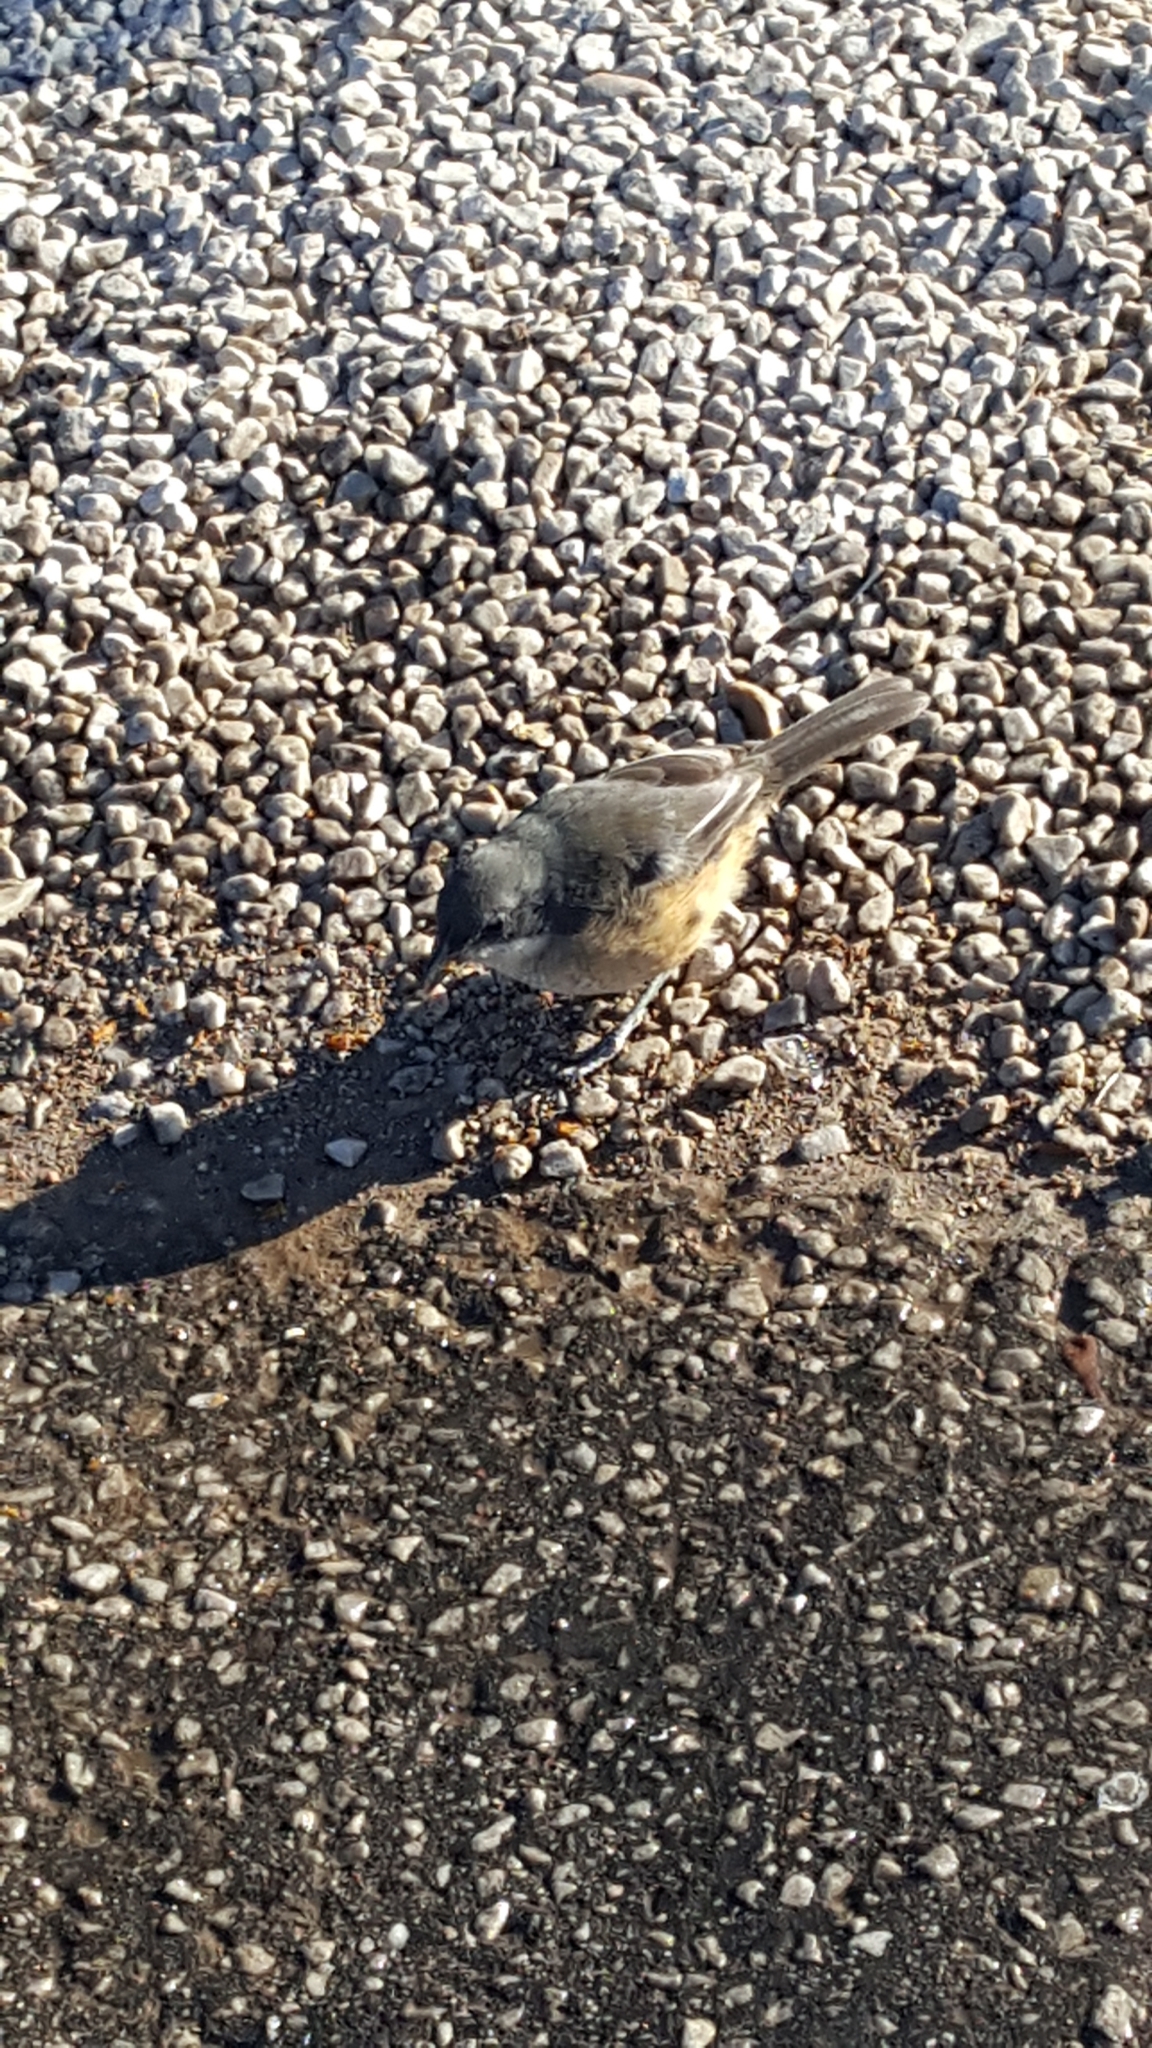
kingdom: Animalia
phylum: Chordata
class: Aves
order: Passeriformes
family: Malaconotidae
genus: Laniarius
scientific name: Laniarius ferrugineus
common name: Southern boubou
